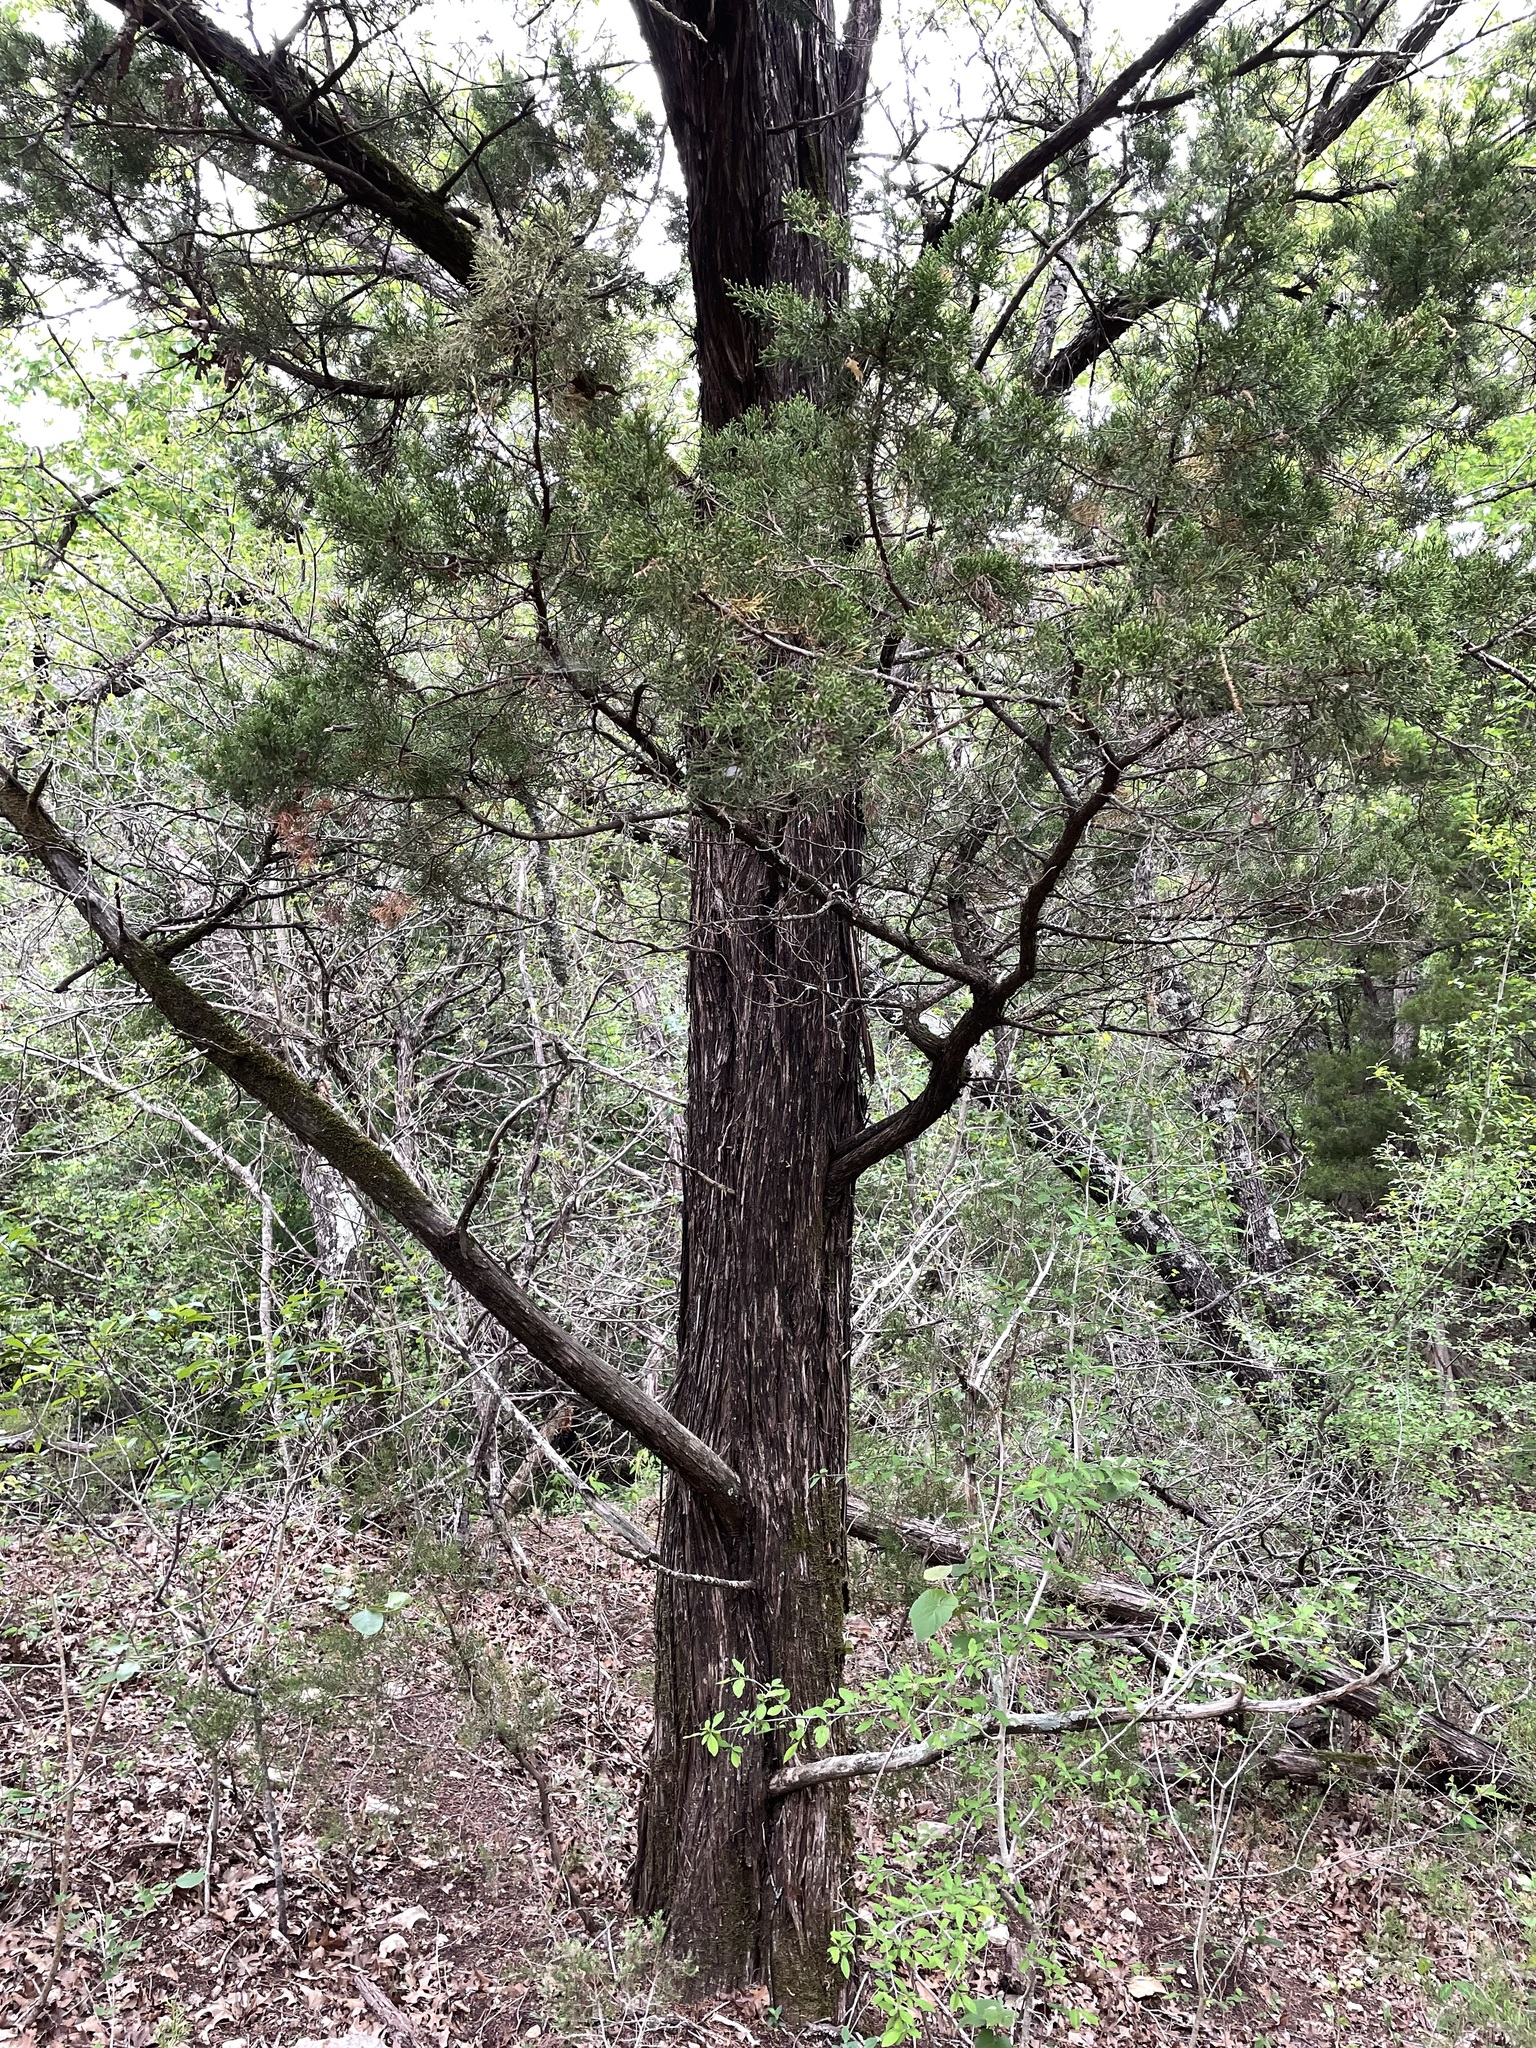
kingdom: Plantae
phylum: Tracheophyta
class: Pinopsida
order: Pinales
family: Cupressaceae
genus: Juniperus
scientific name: Juniperus ashei
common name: Mexican juniper
